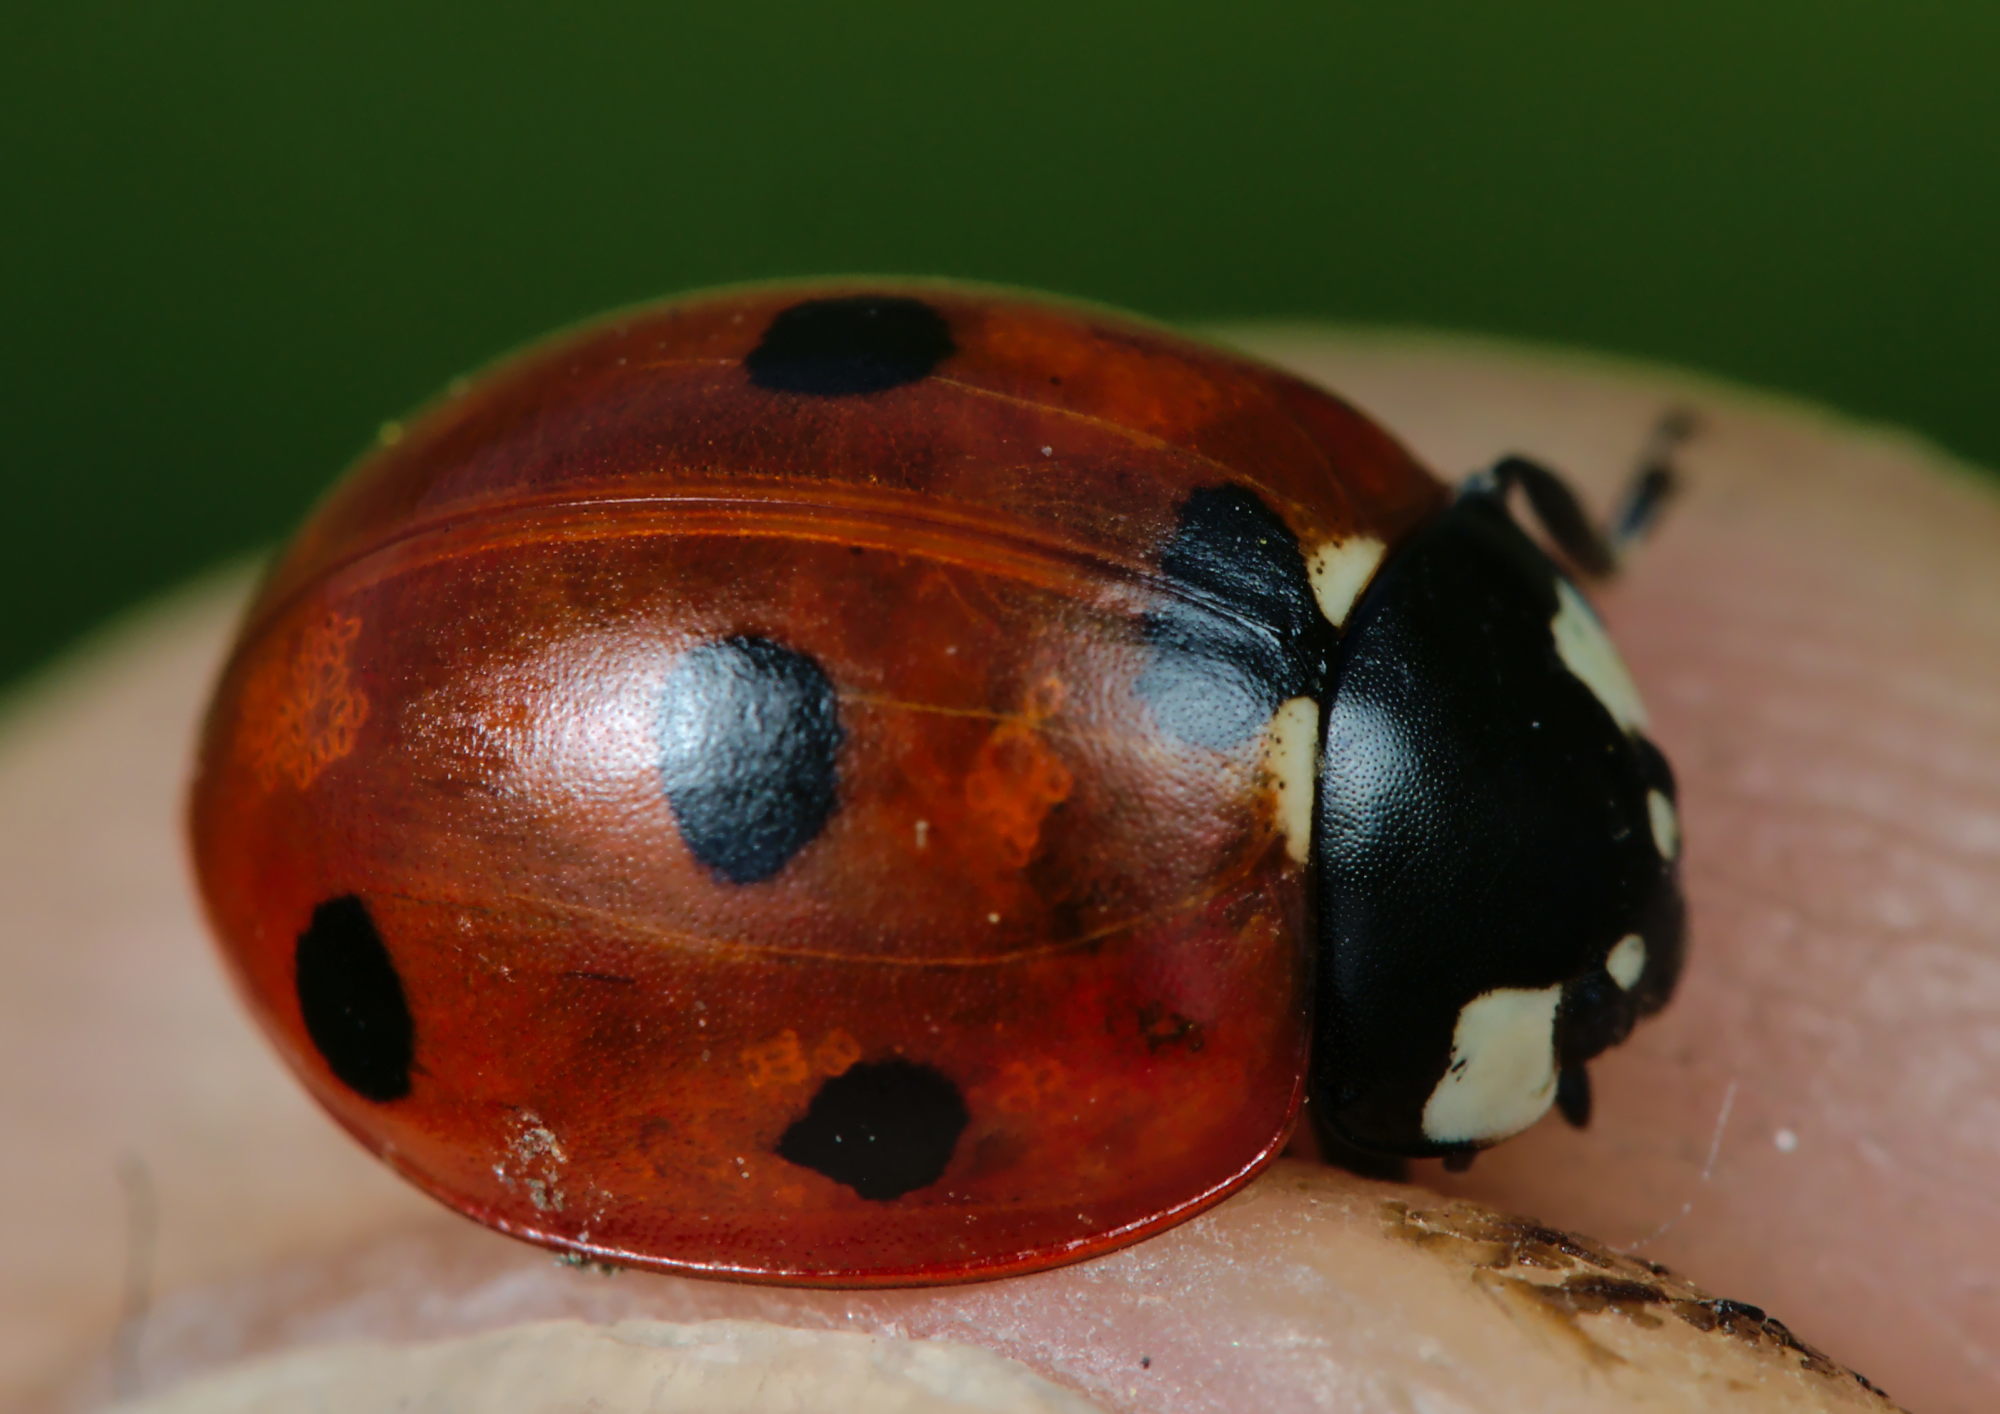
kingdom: Animalia
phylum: Arthropoda
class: Insecta
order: Coleoptera
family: Coccinellidae
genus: Coccinella
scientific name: Coccinella septempunctata
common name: Sevenspotted lady beetle
